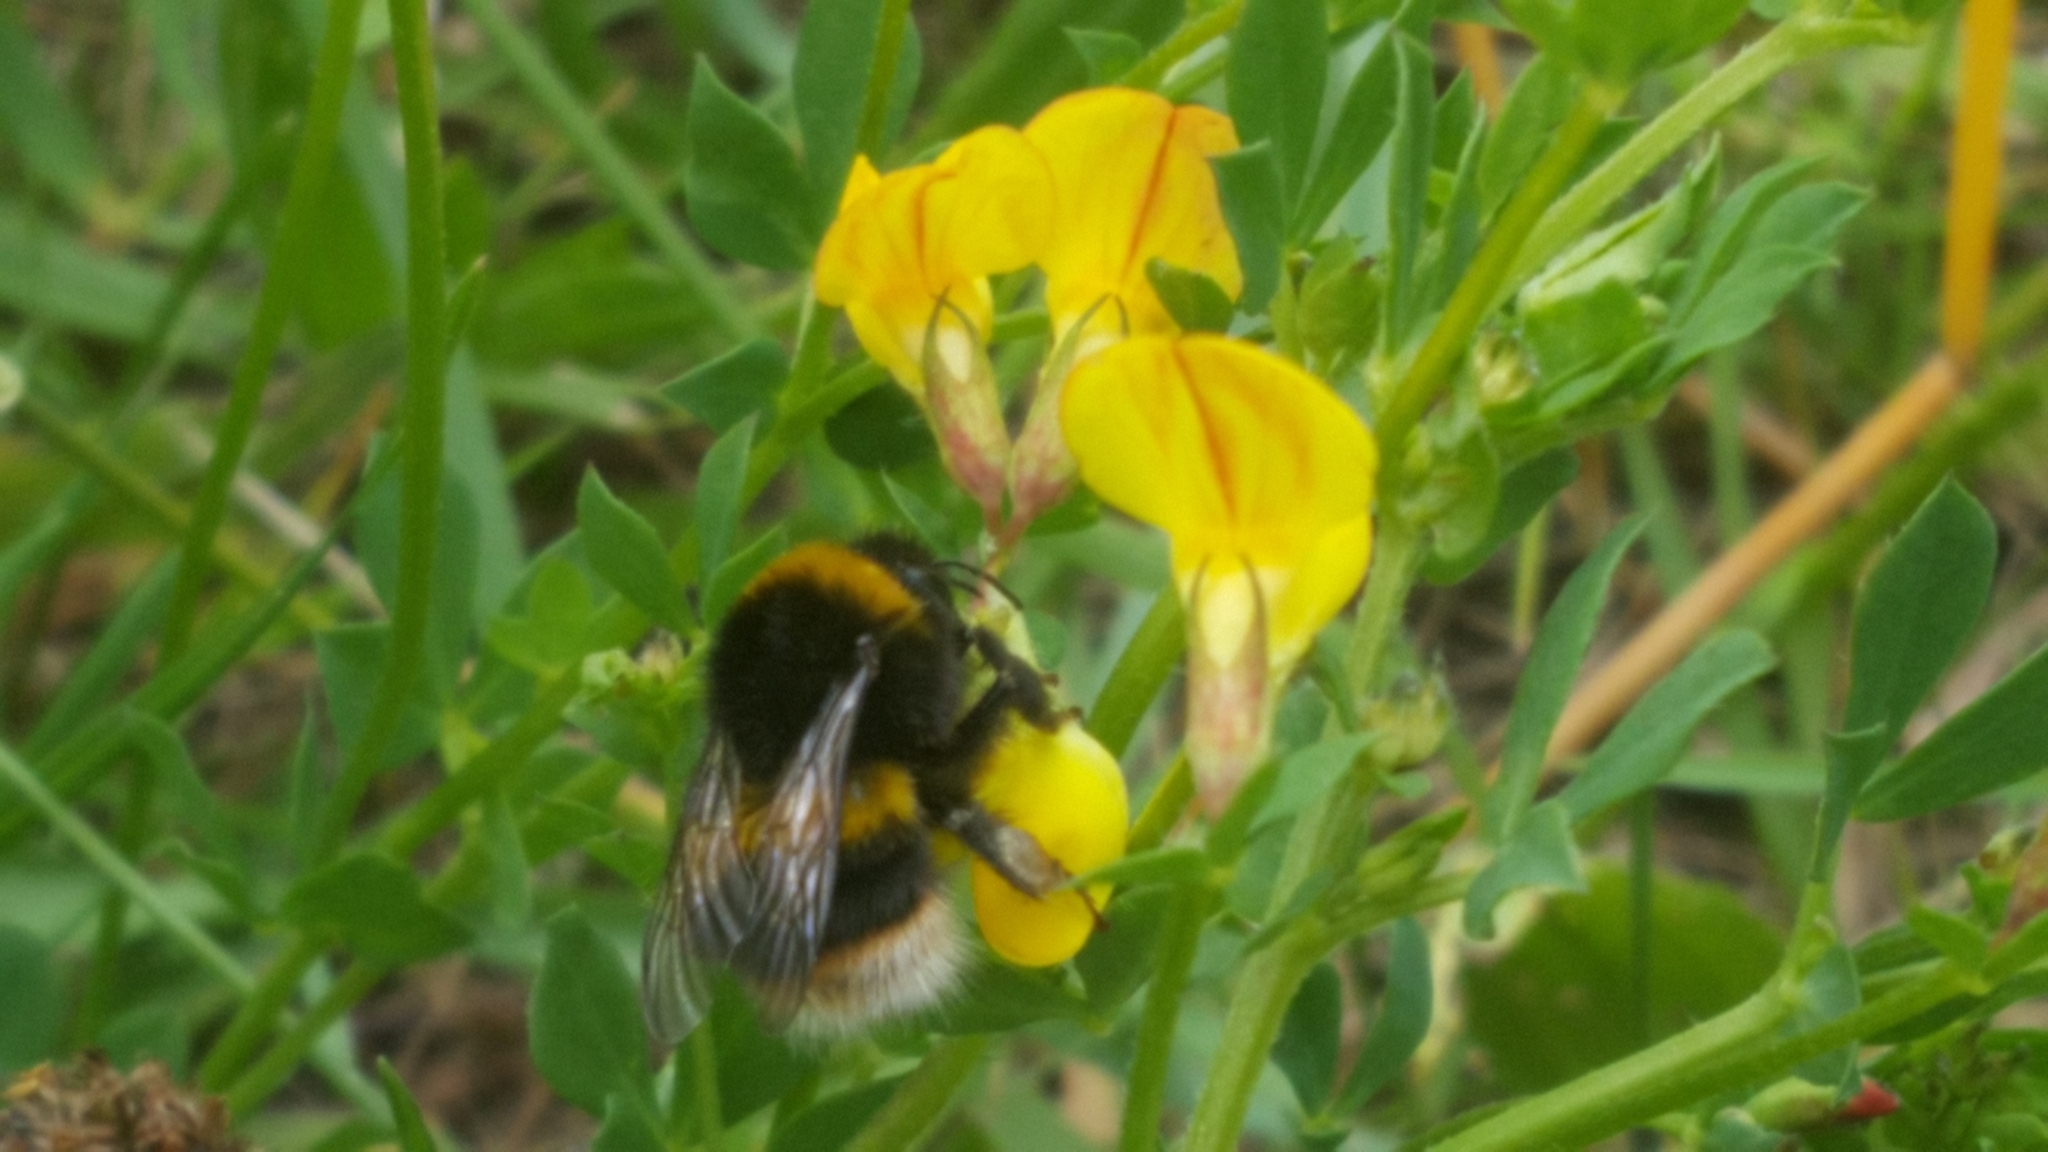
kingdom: Animalia
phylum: Arthropoda
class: Insecta
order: Hymenoptera
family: Apidae
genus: Bombus
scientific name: Bombus terrestris
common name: Buff-tailed bumblebee
